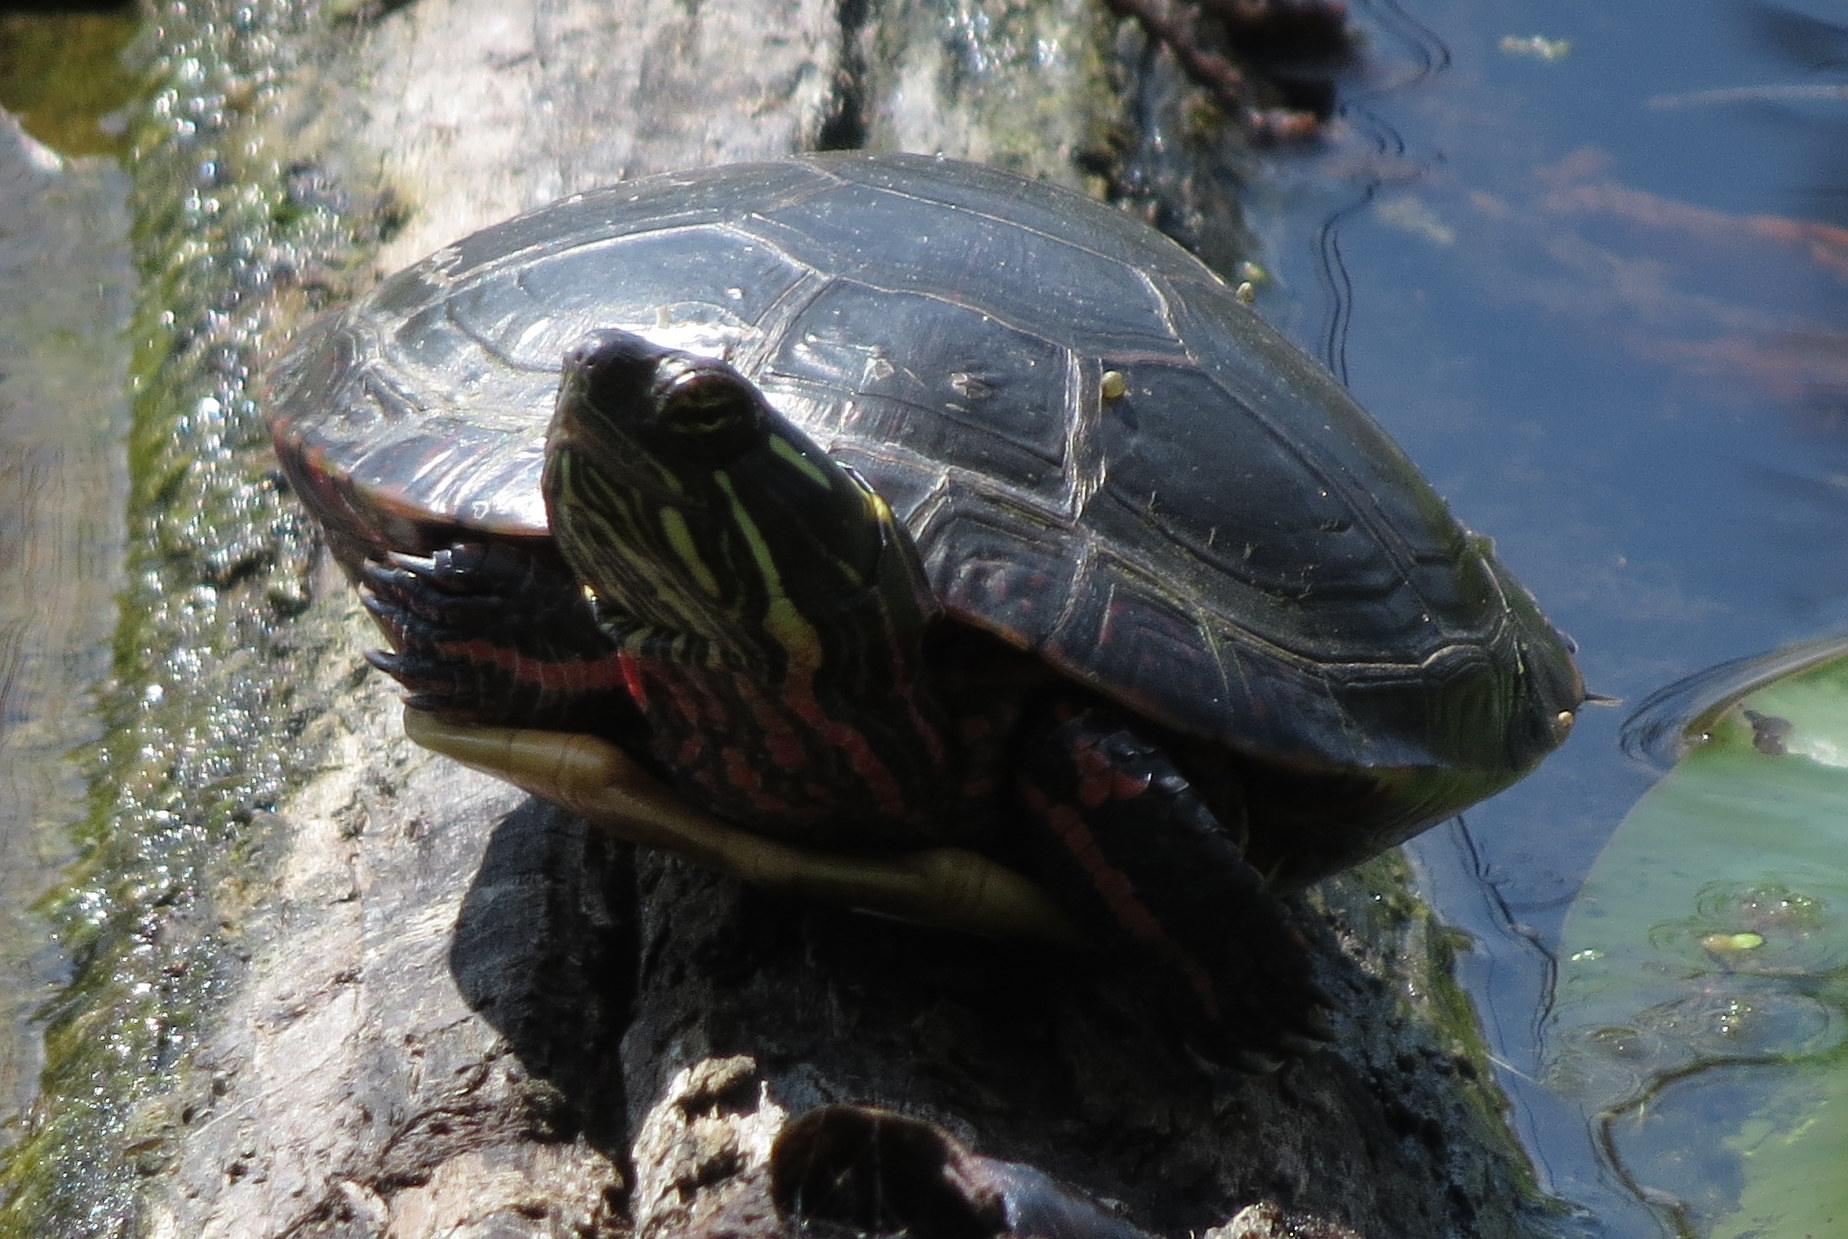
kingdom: Animalia
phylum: Chordata
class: Testudines
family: Emydidae
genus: Chrysemys
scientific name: Chrysemys picta
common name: Painted turtle
